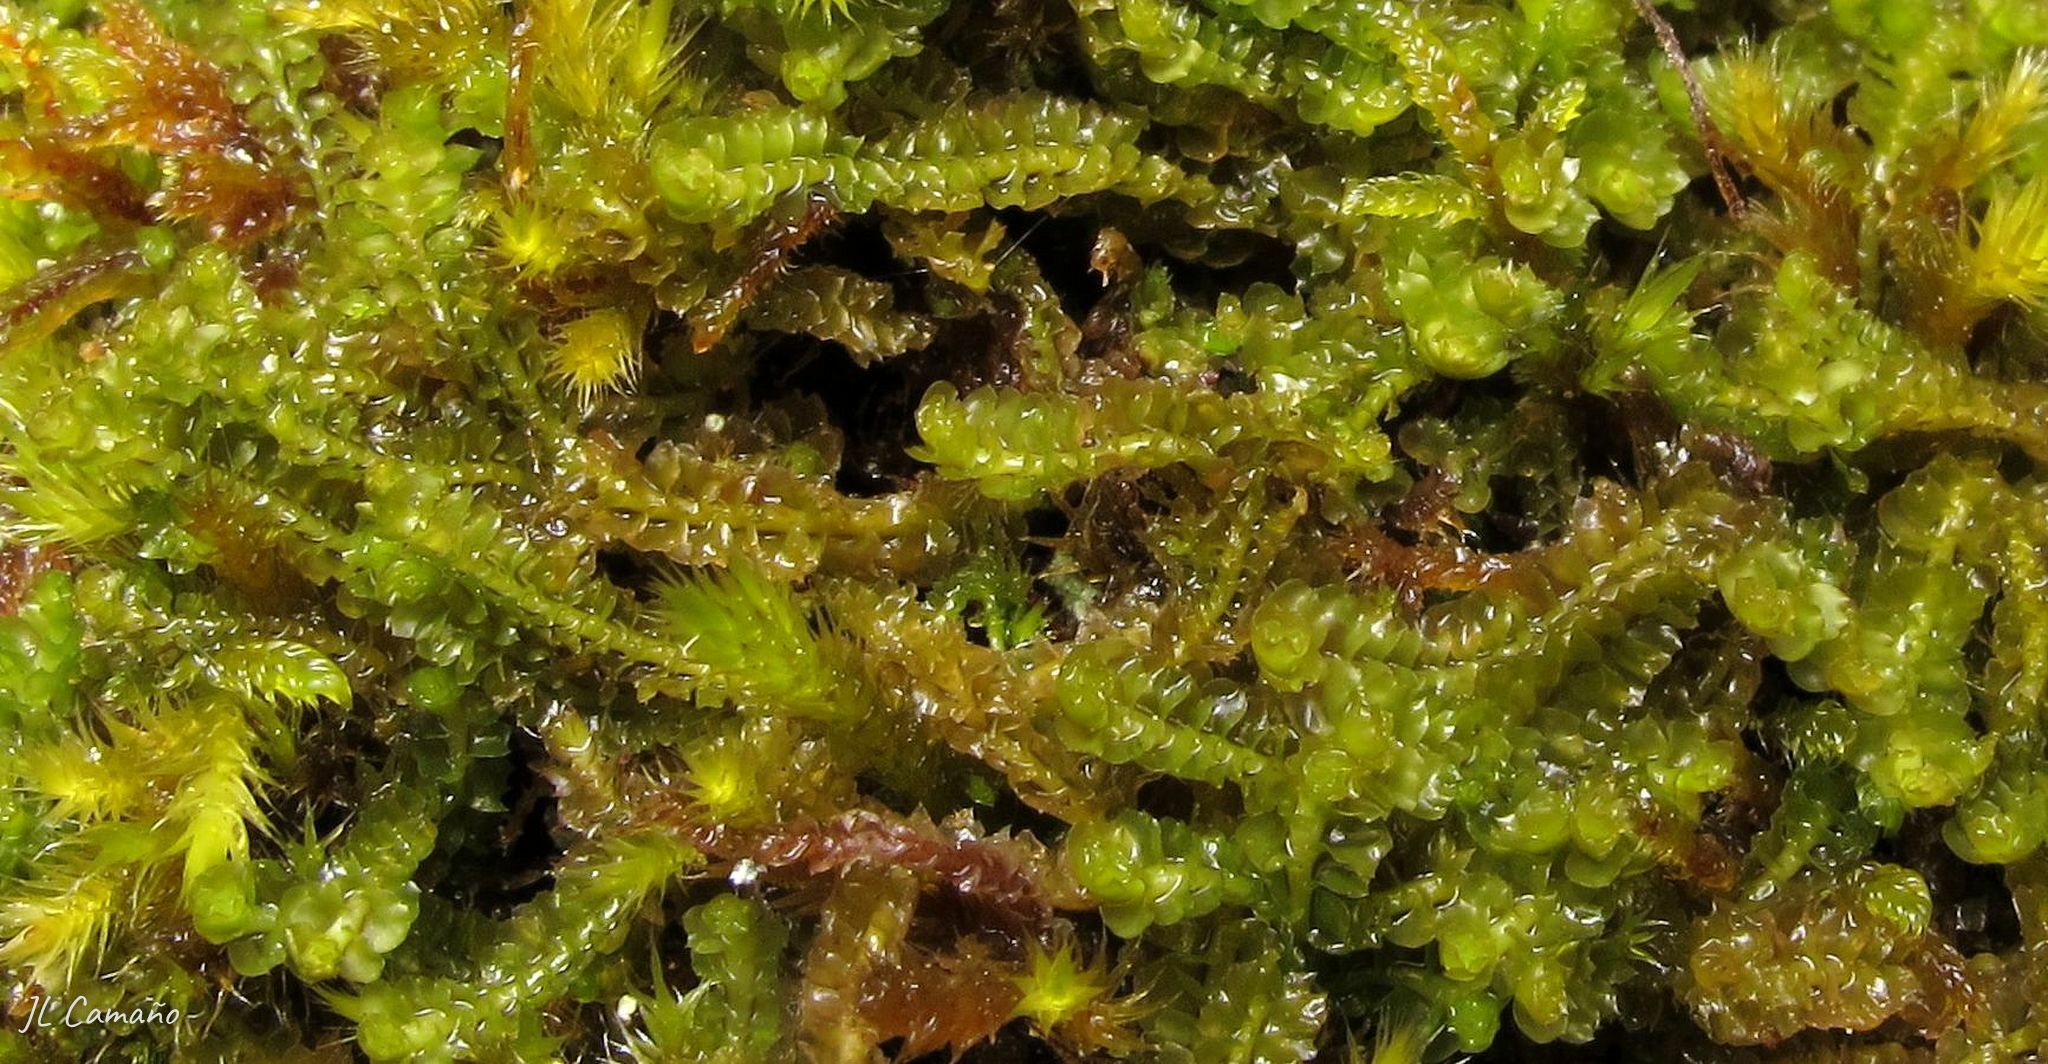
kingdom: Plantae
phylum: Marchantiophyta
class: Jungermanniopsida
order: Jungermanniales
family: Lophoziaceae
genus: Trilophozia
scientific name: Trilophozia quinquedentata
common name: Large notchwort
